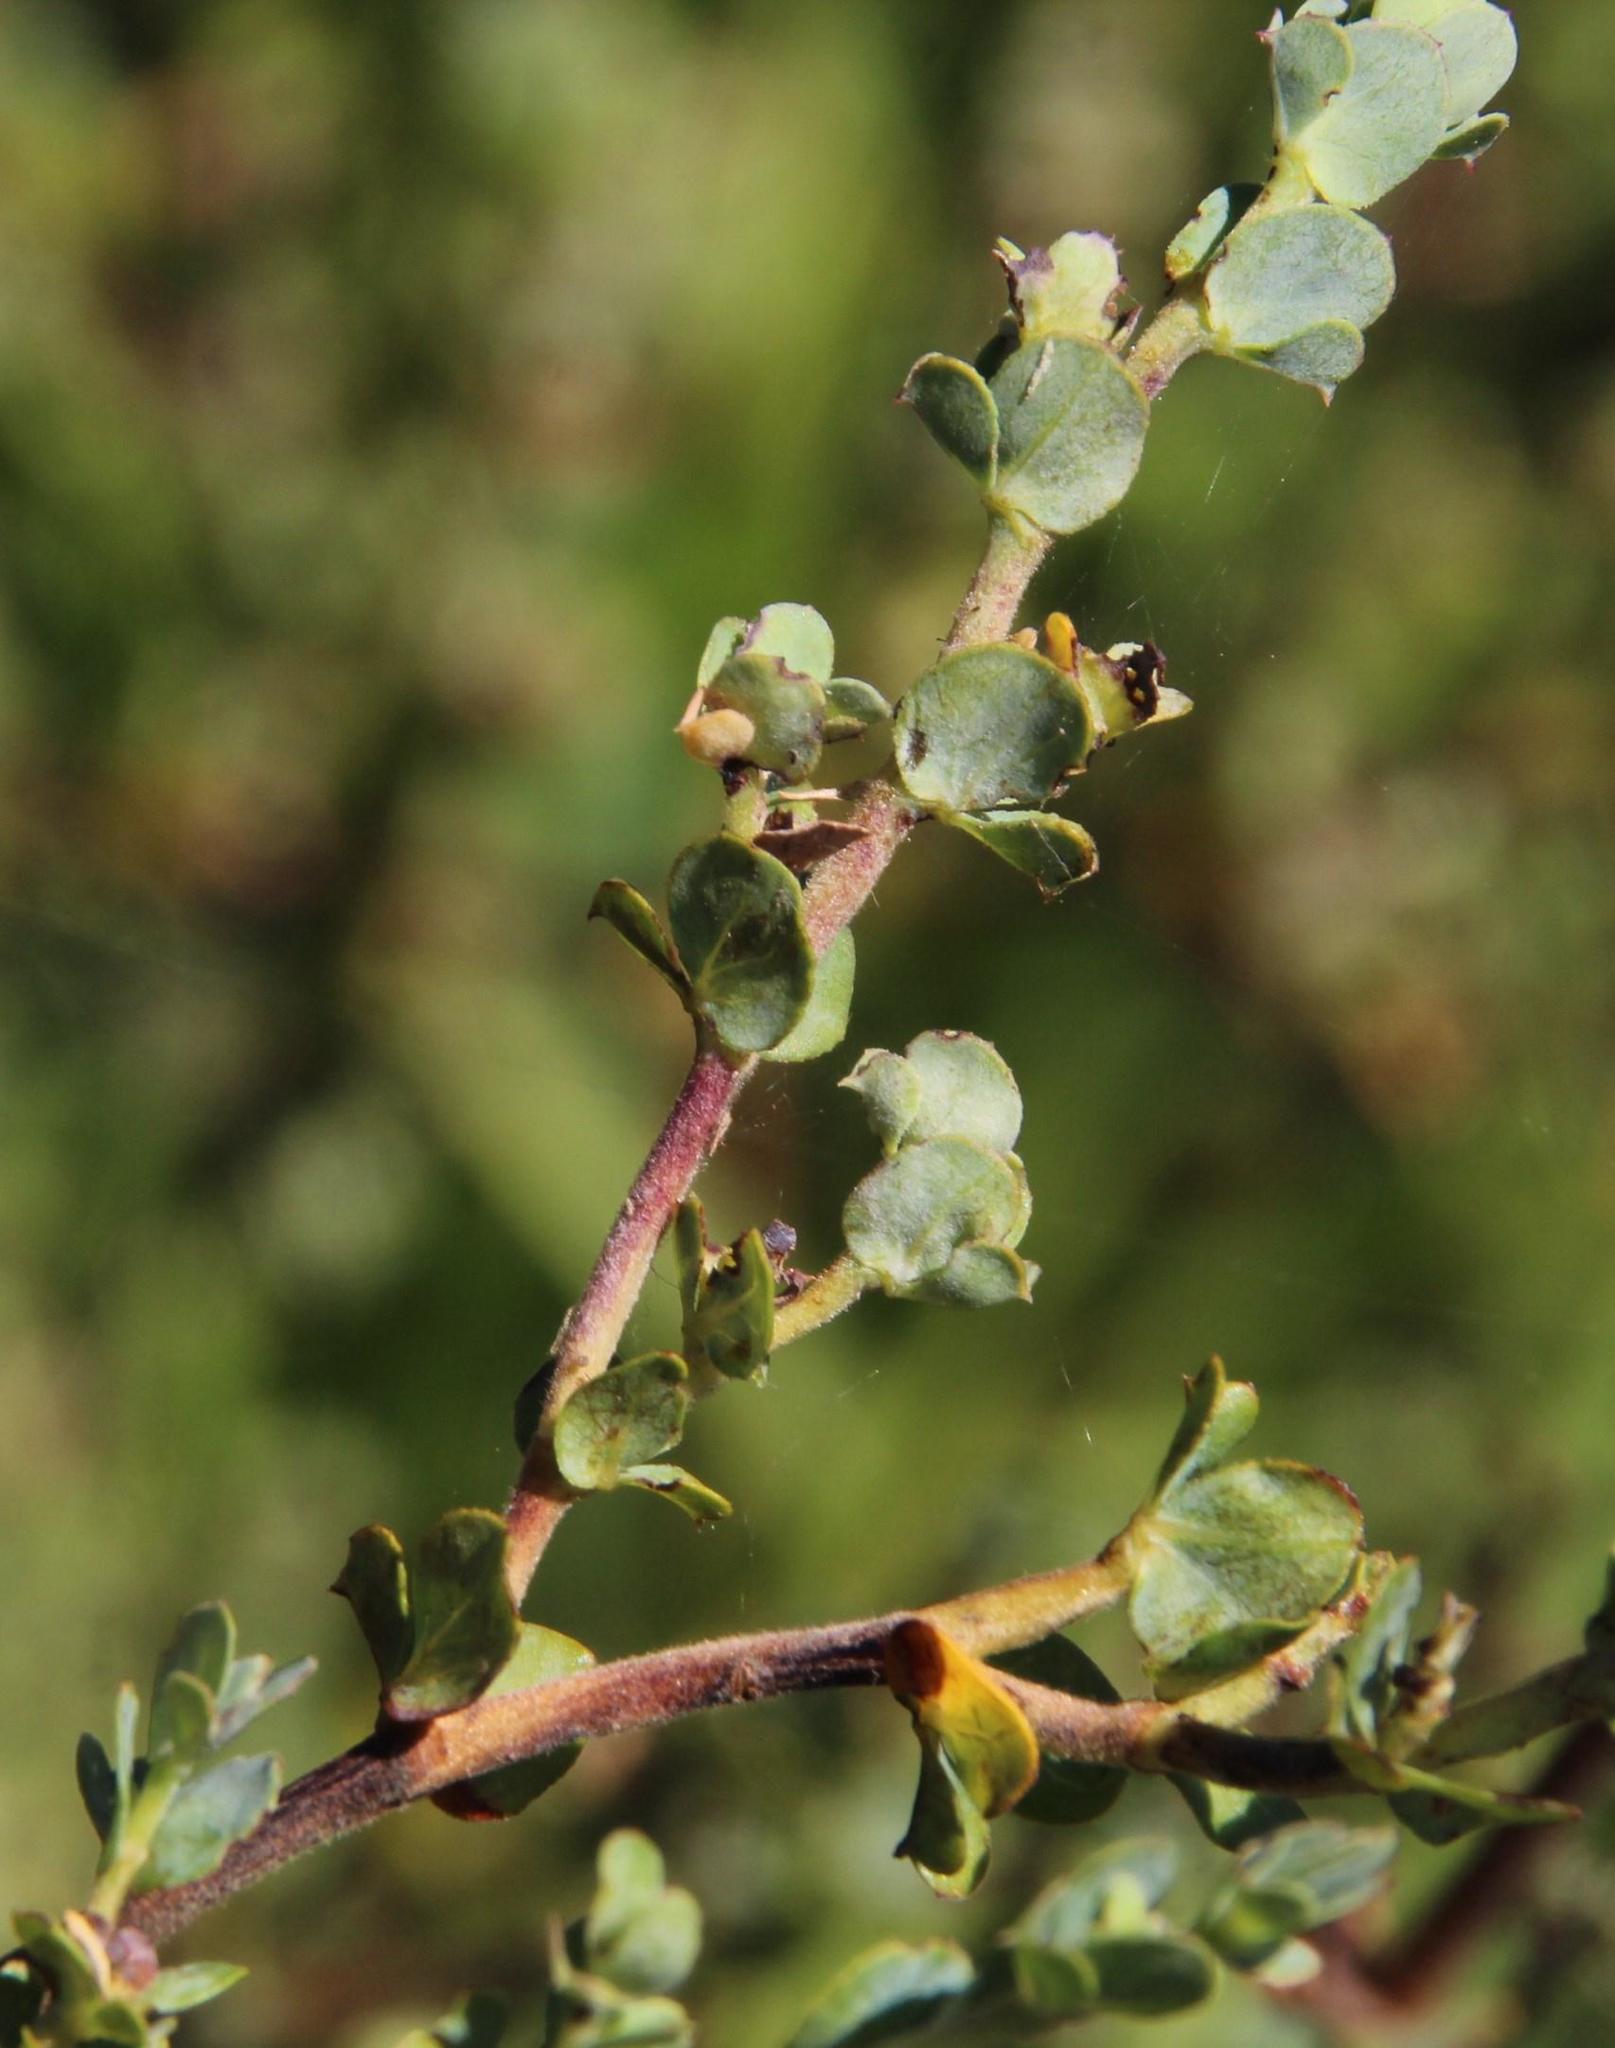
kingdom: Plantae
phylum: Tracheophyta
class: Magnoliopsida
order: Rosales
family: Rosaceae
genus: Cliffortia
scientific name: Cliffortia obcordata
